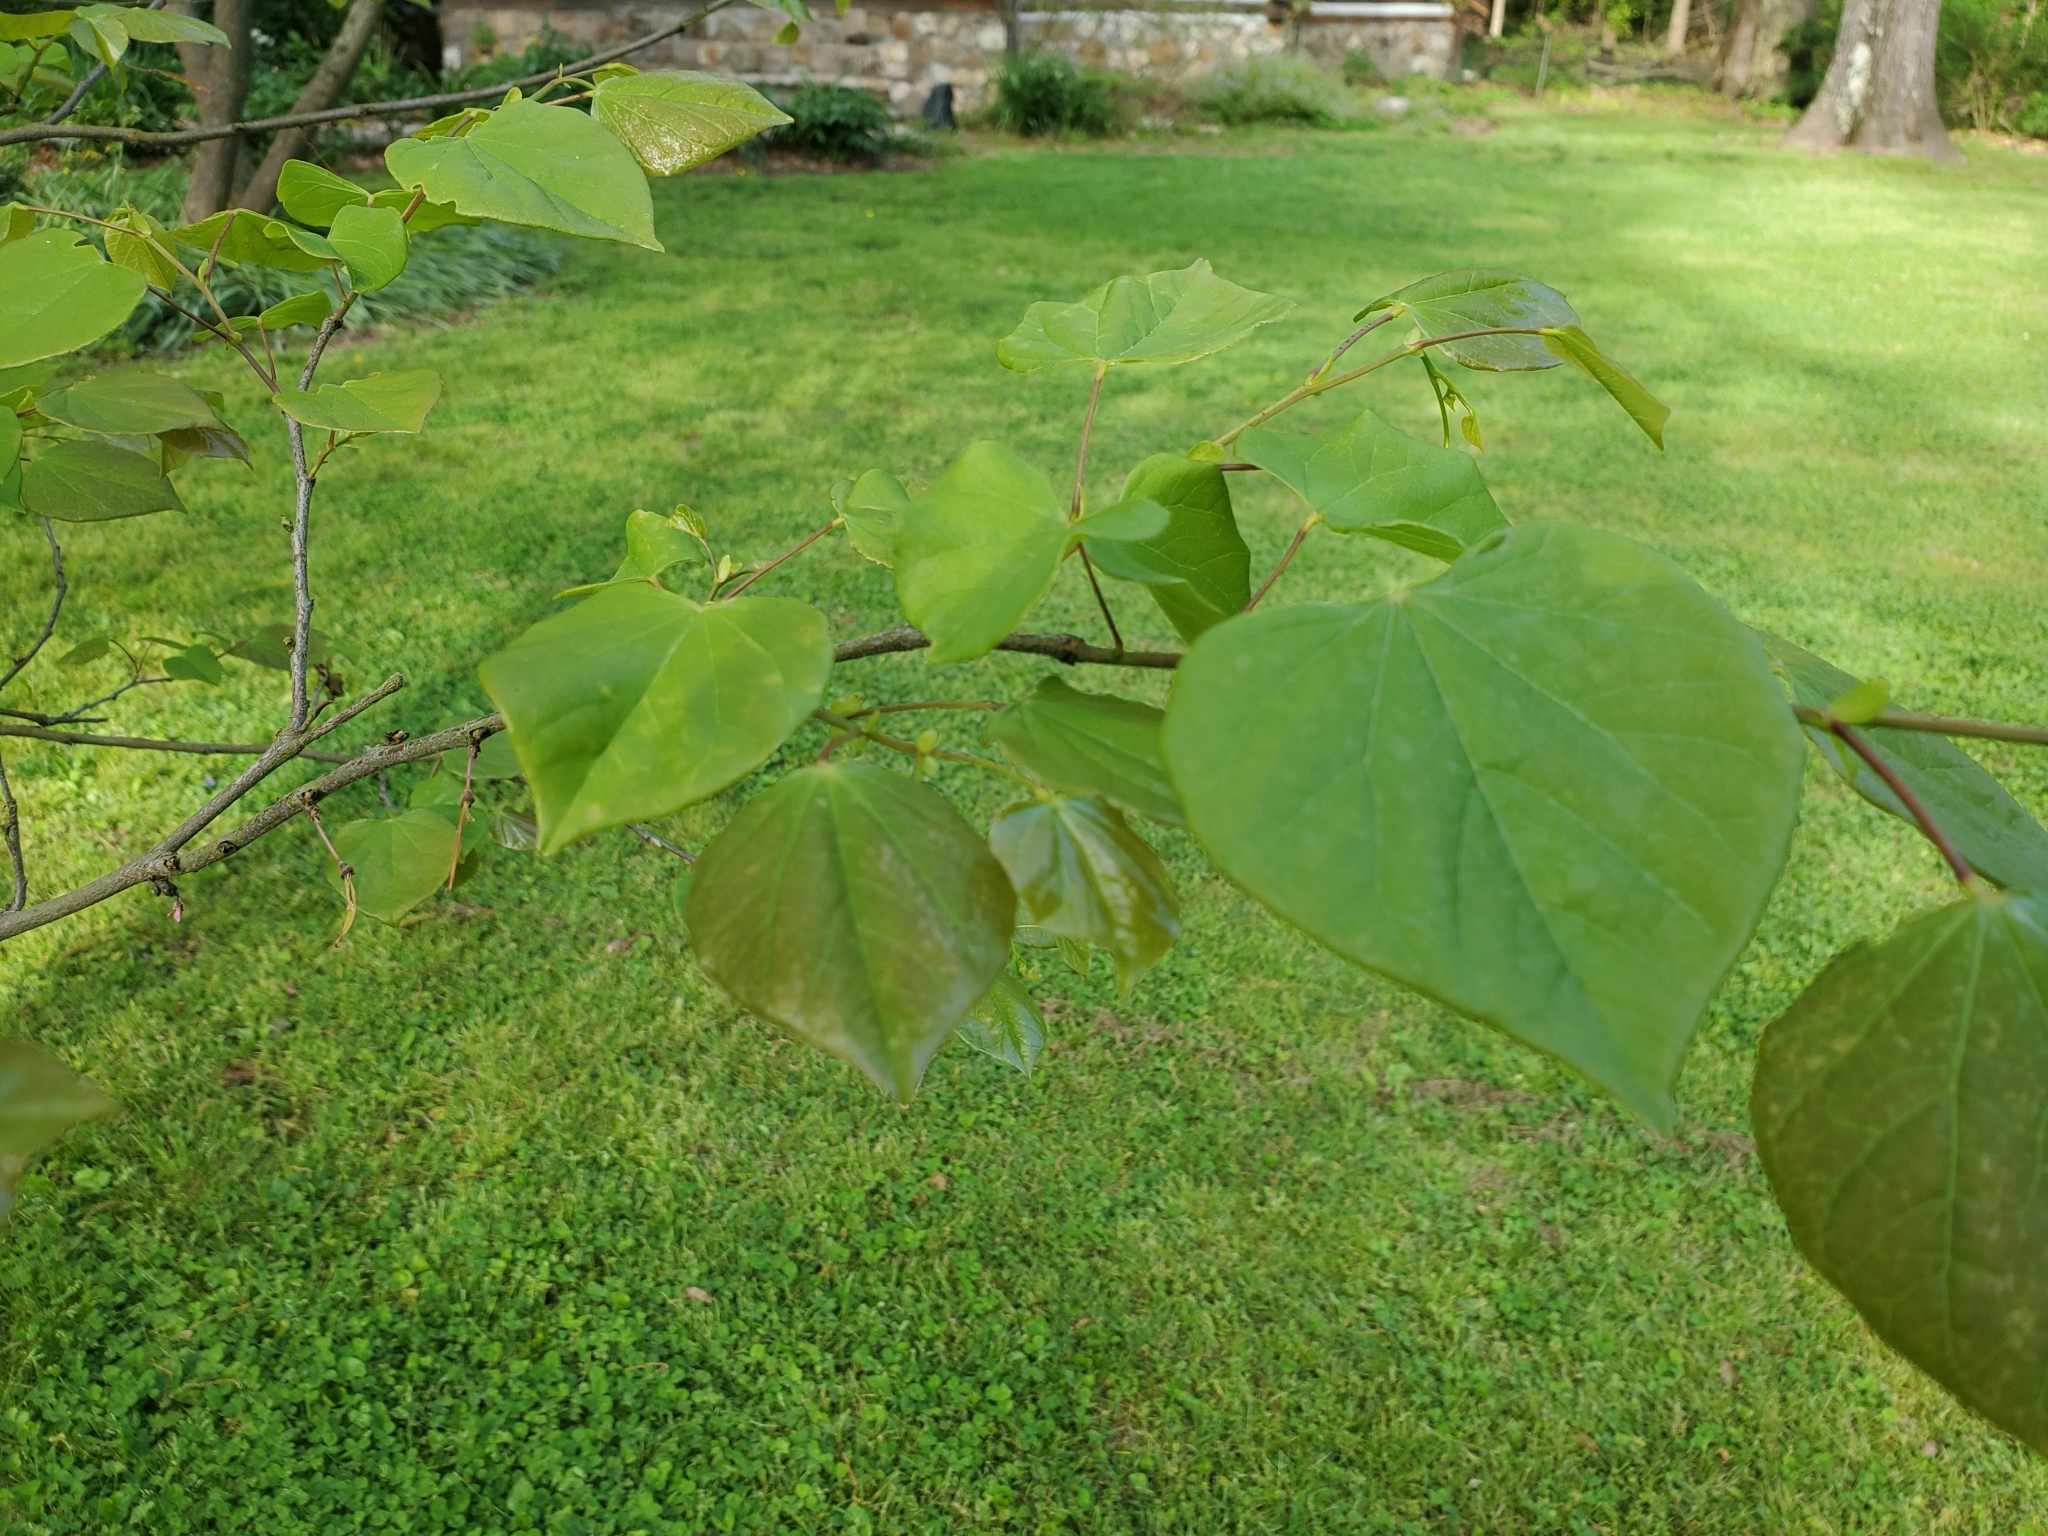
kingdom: Plantae
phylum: Tracheophyta
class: Magnoliopsida
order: Fabales
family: Fabaceae
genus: Cercis
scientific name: Cercis canadensis
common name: Eastern redbud
